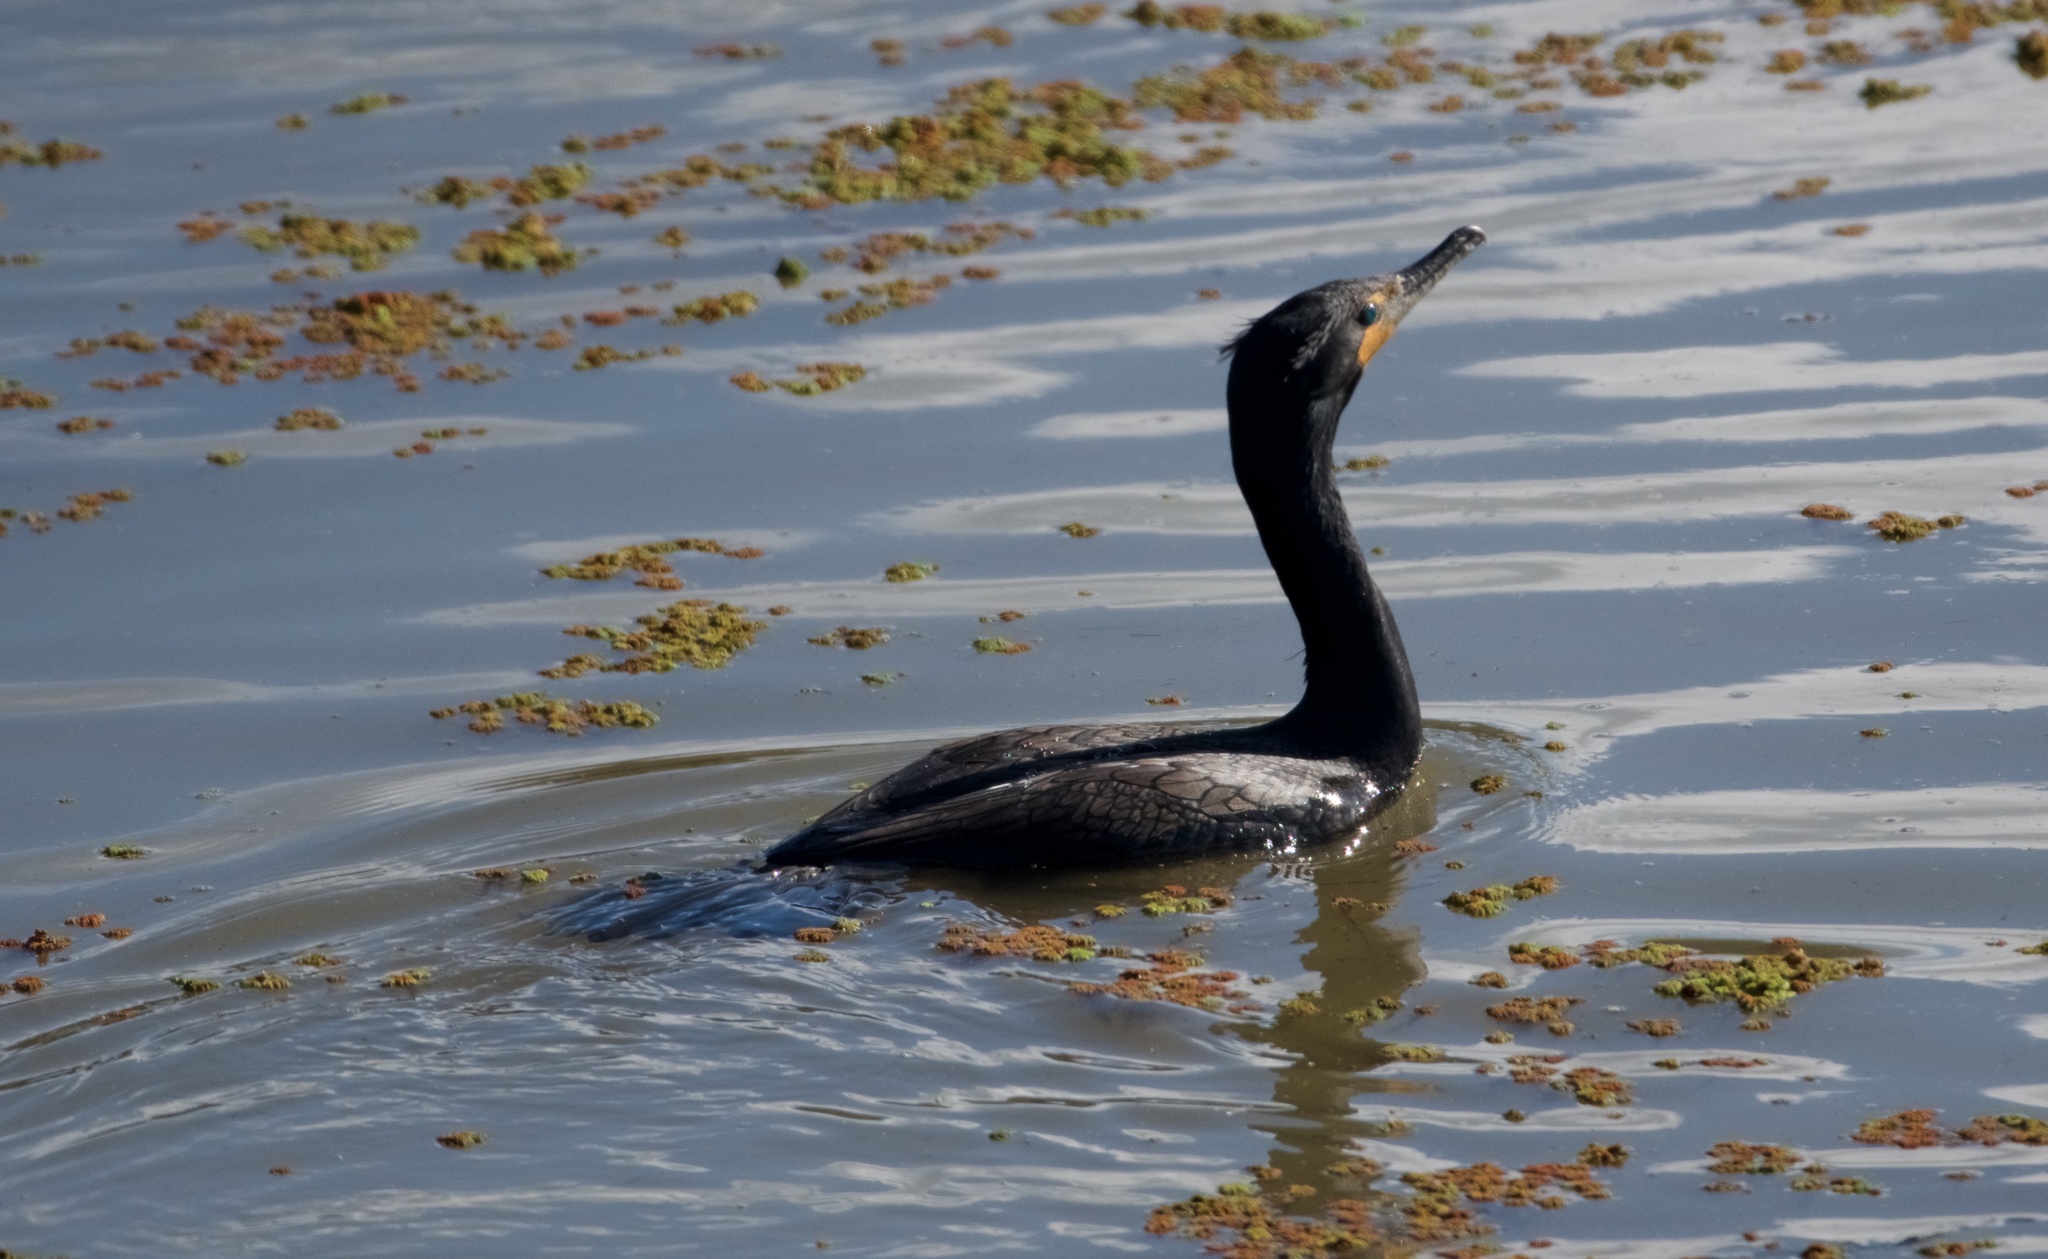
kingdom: Animalia
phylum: Chordata
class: Aves
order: Suliformes
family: Phalacrocoracidae
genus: Phalacrocorax
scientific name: Phalacrocorax auritus
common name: Double-crested cormorant
